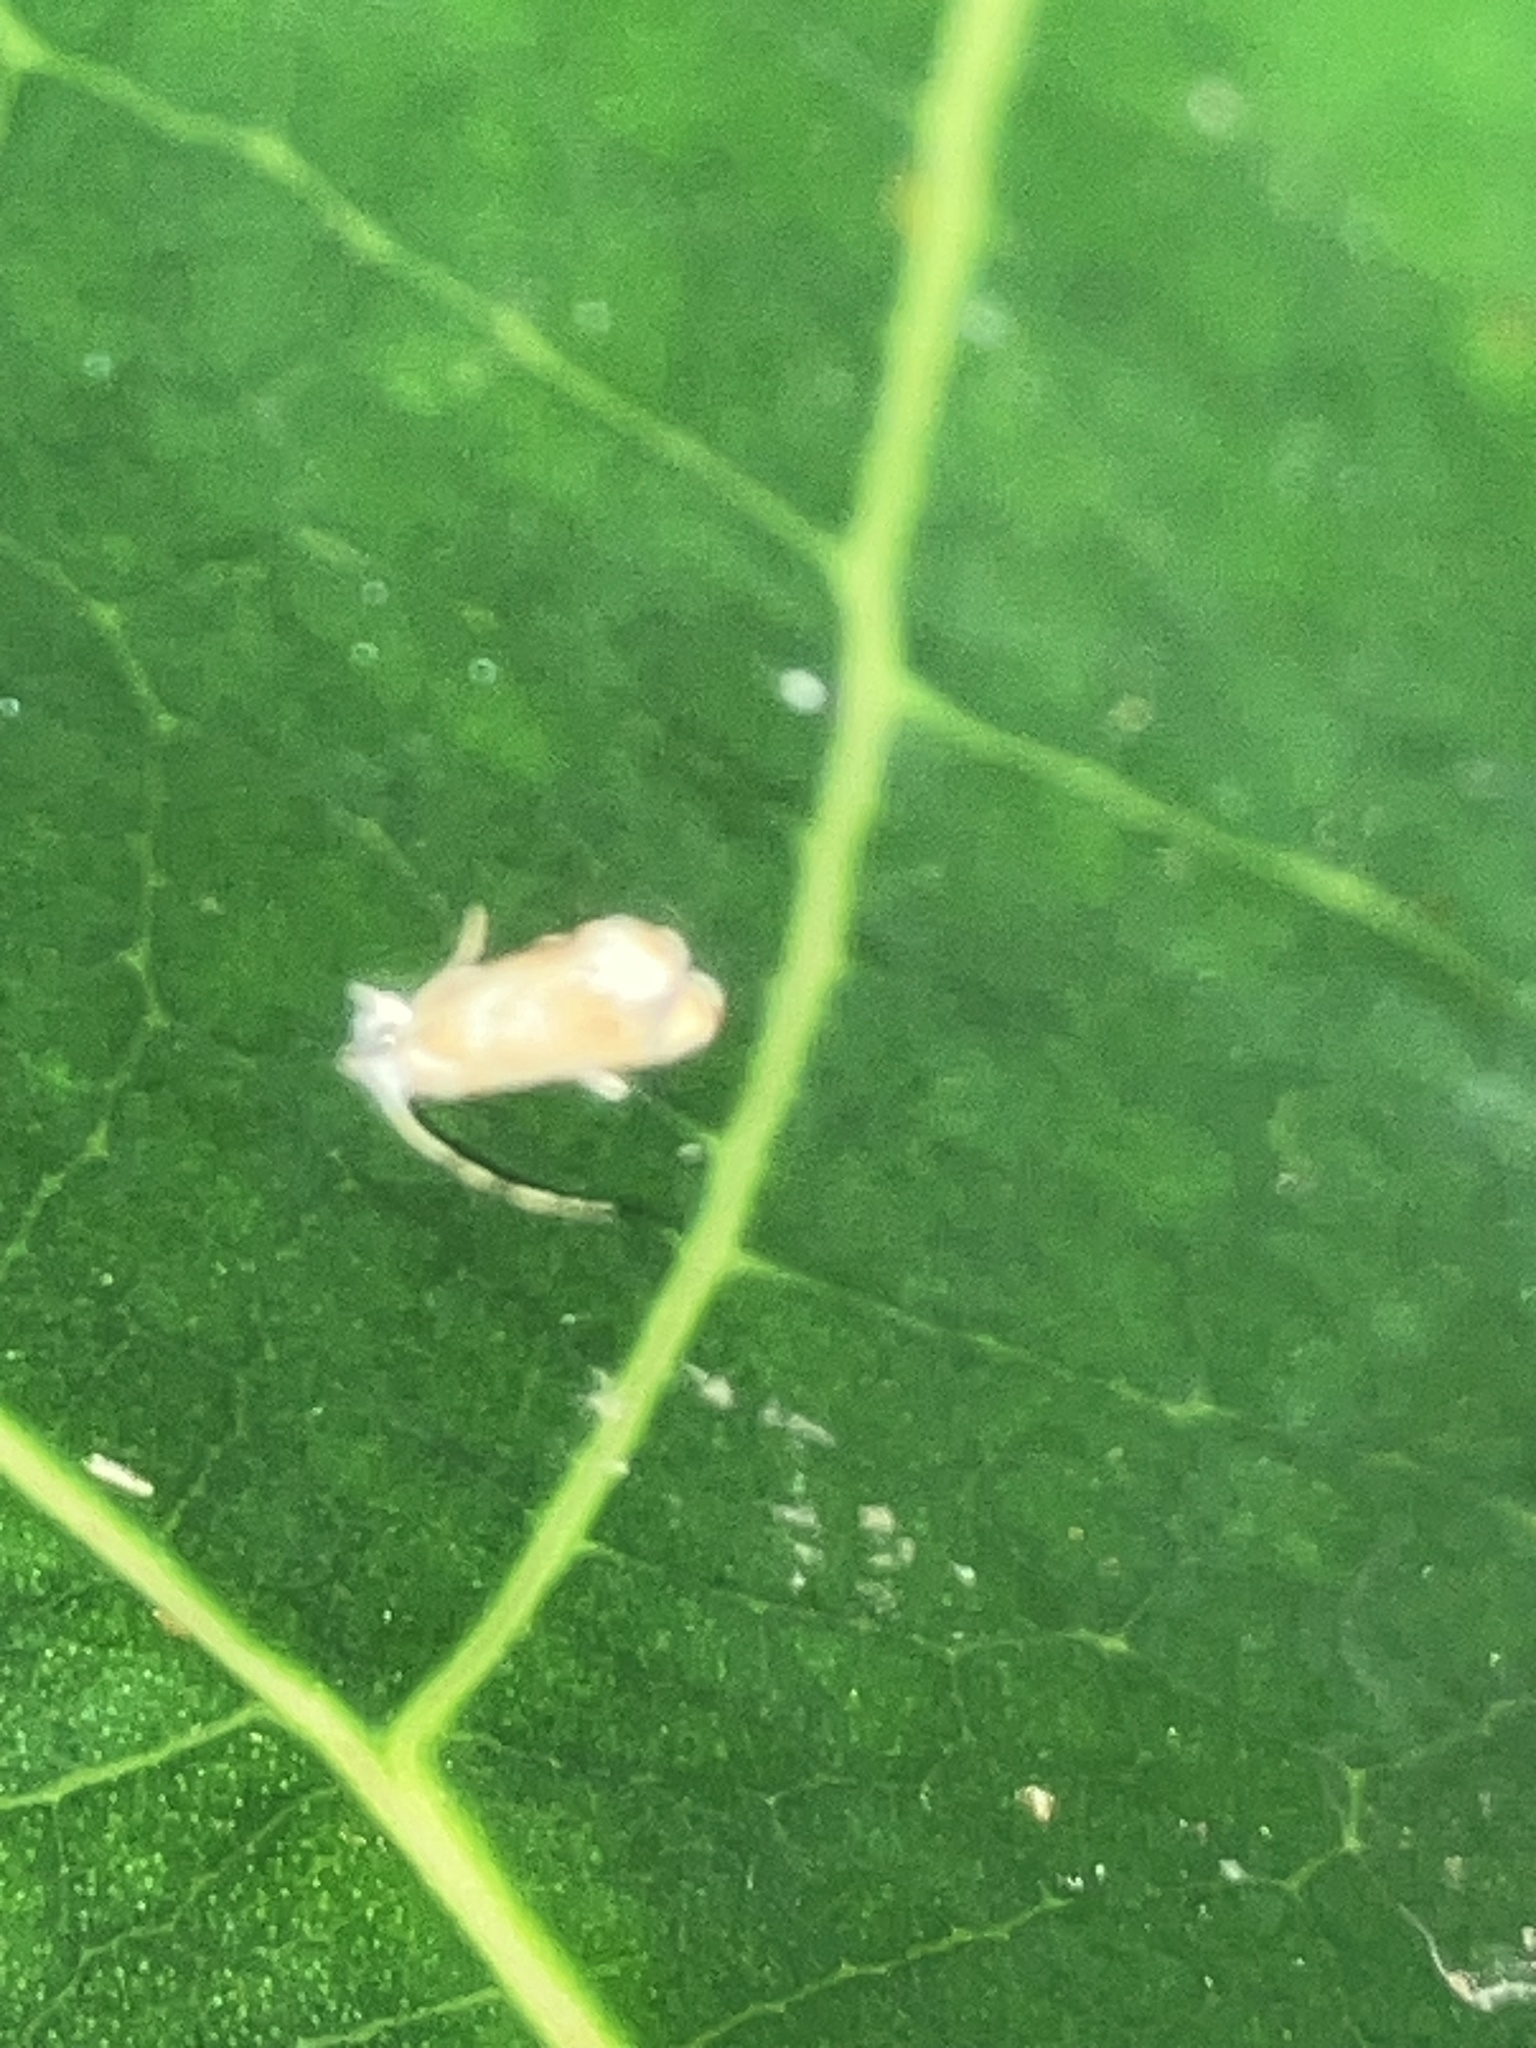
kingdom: Animalia
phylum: Arthropoda
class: Insecta
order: Lepidoptera
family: Dryadaulidae
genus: Dryadaula
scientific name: Dryadaula terpsichorella
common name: Dancing moth
